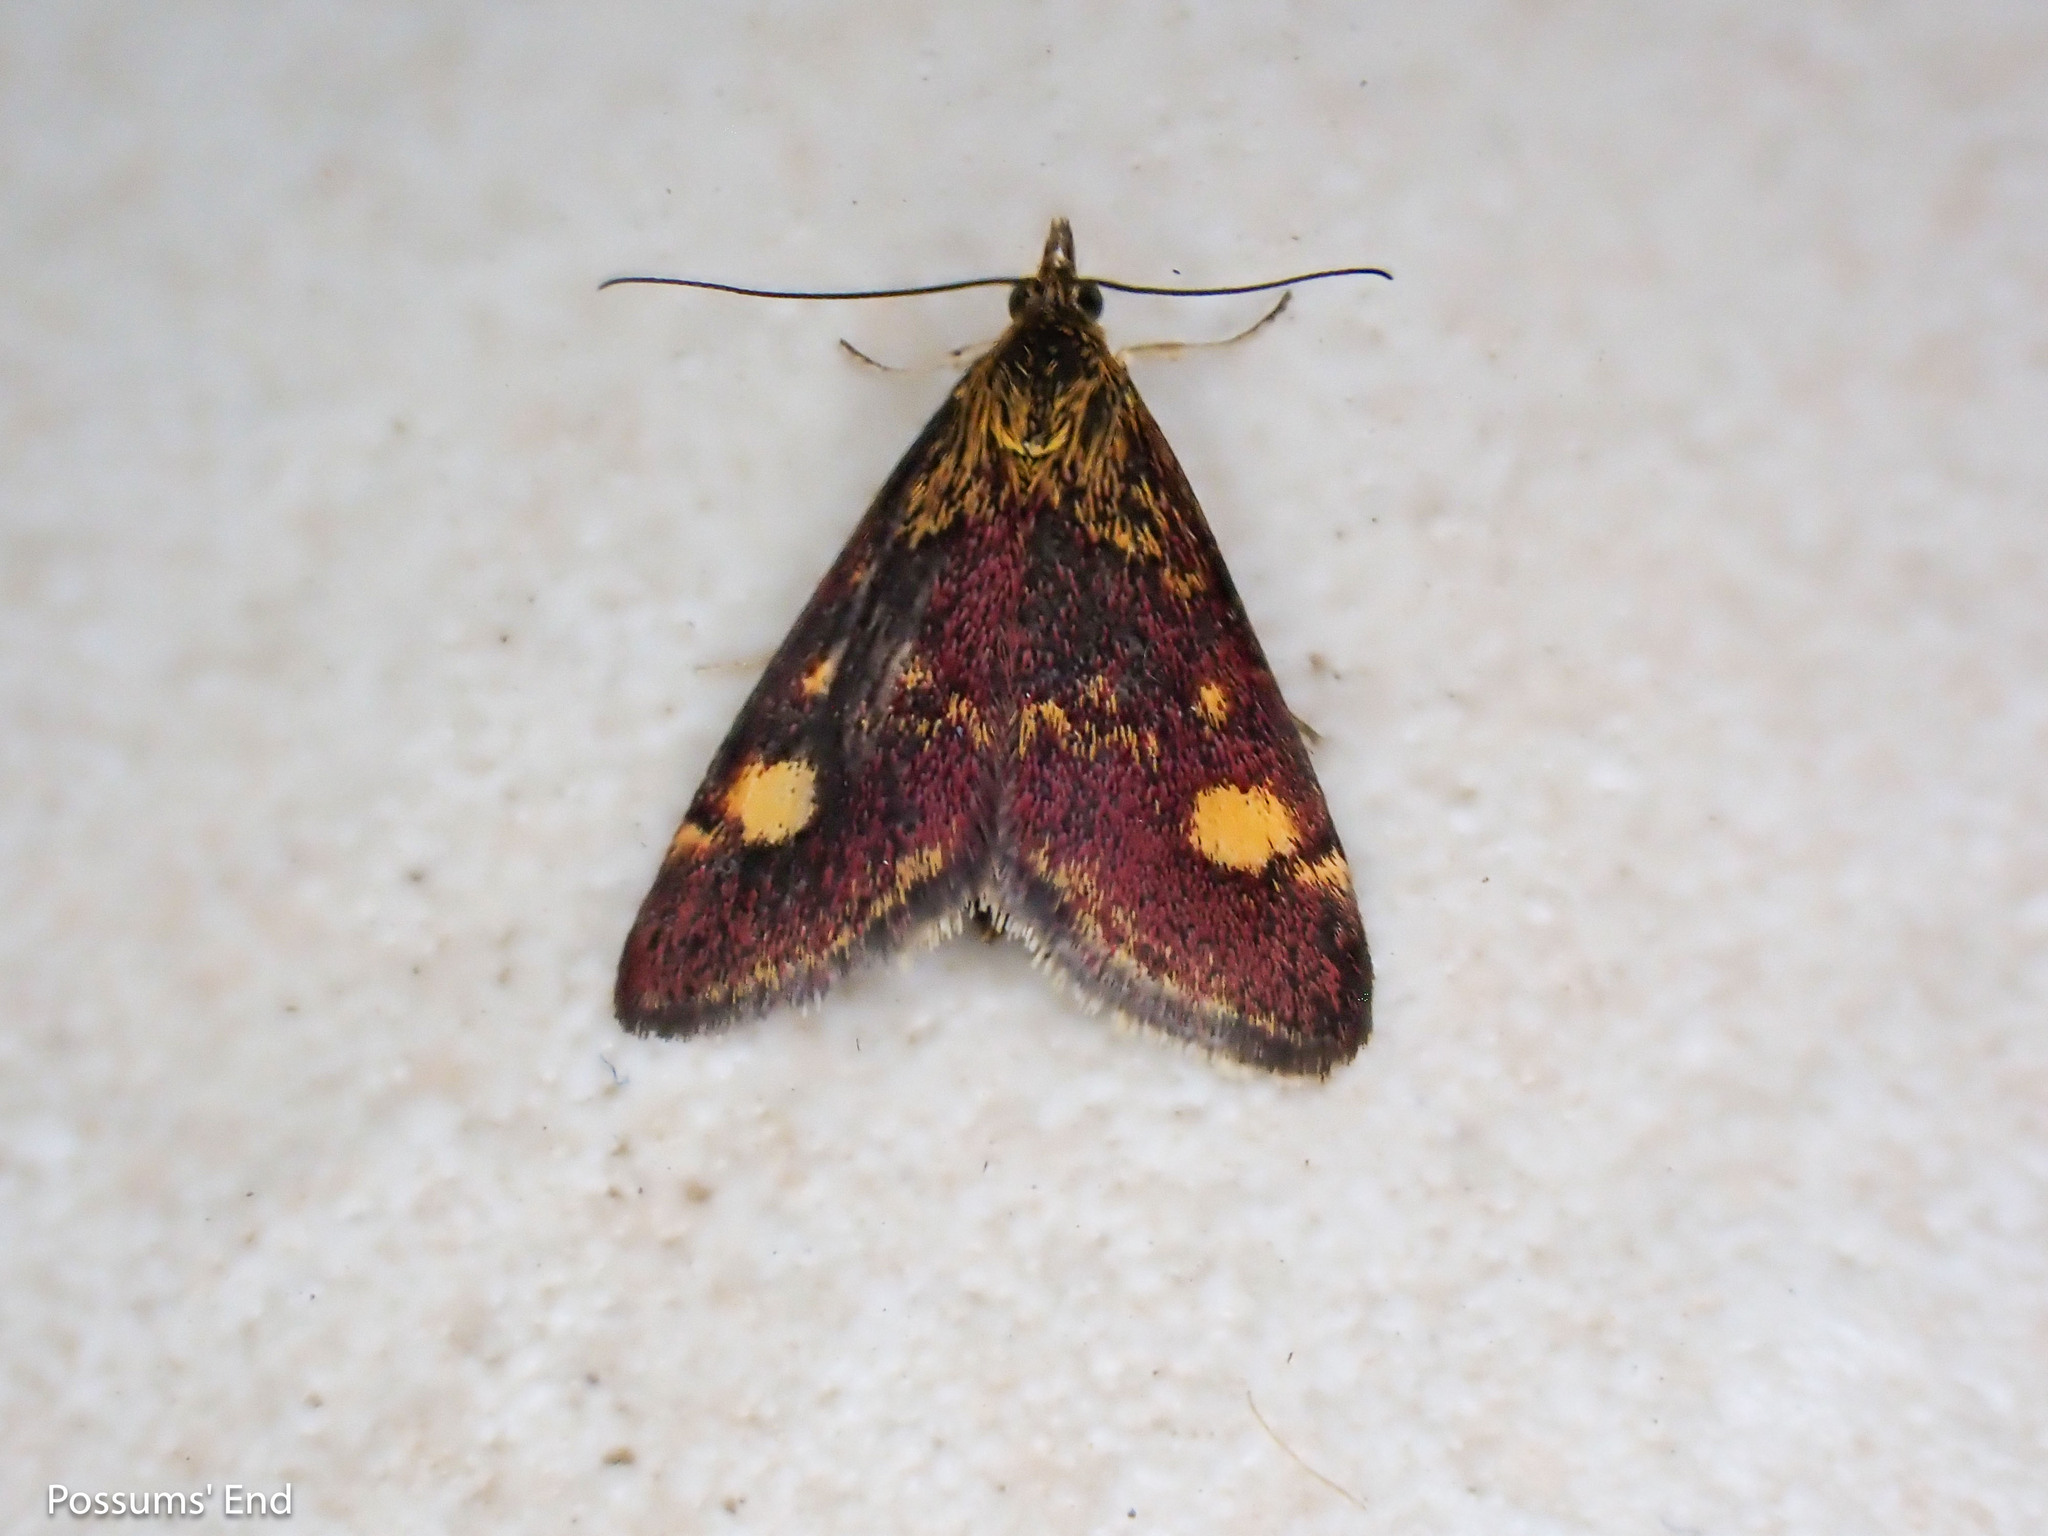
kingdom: Animalia
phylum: Arthropoda
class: Insecta
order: Lepidoptera
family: Crambidae
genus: Pyrausta
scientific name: Pyrausta aurata
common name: Small purple & gold
